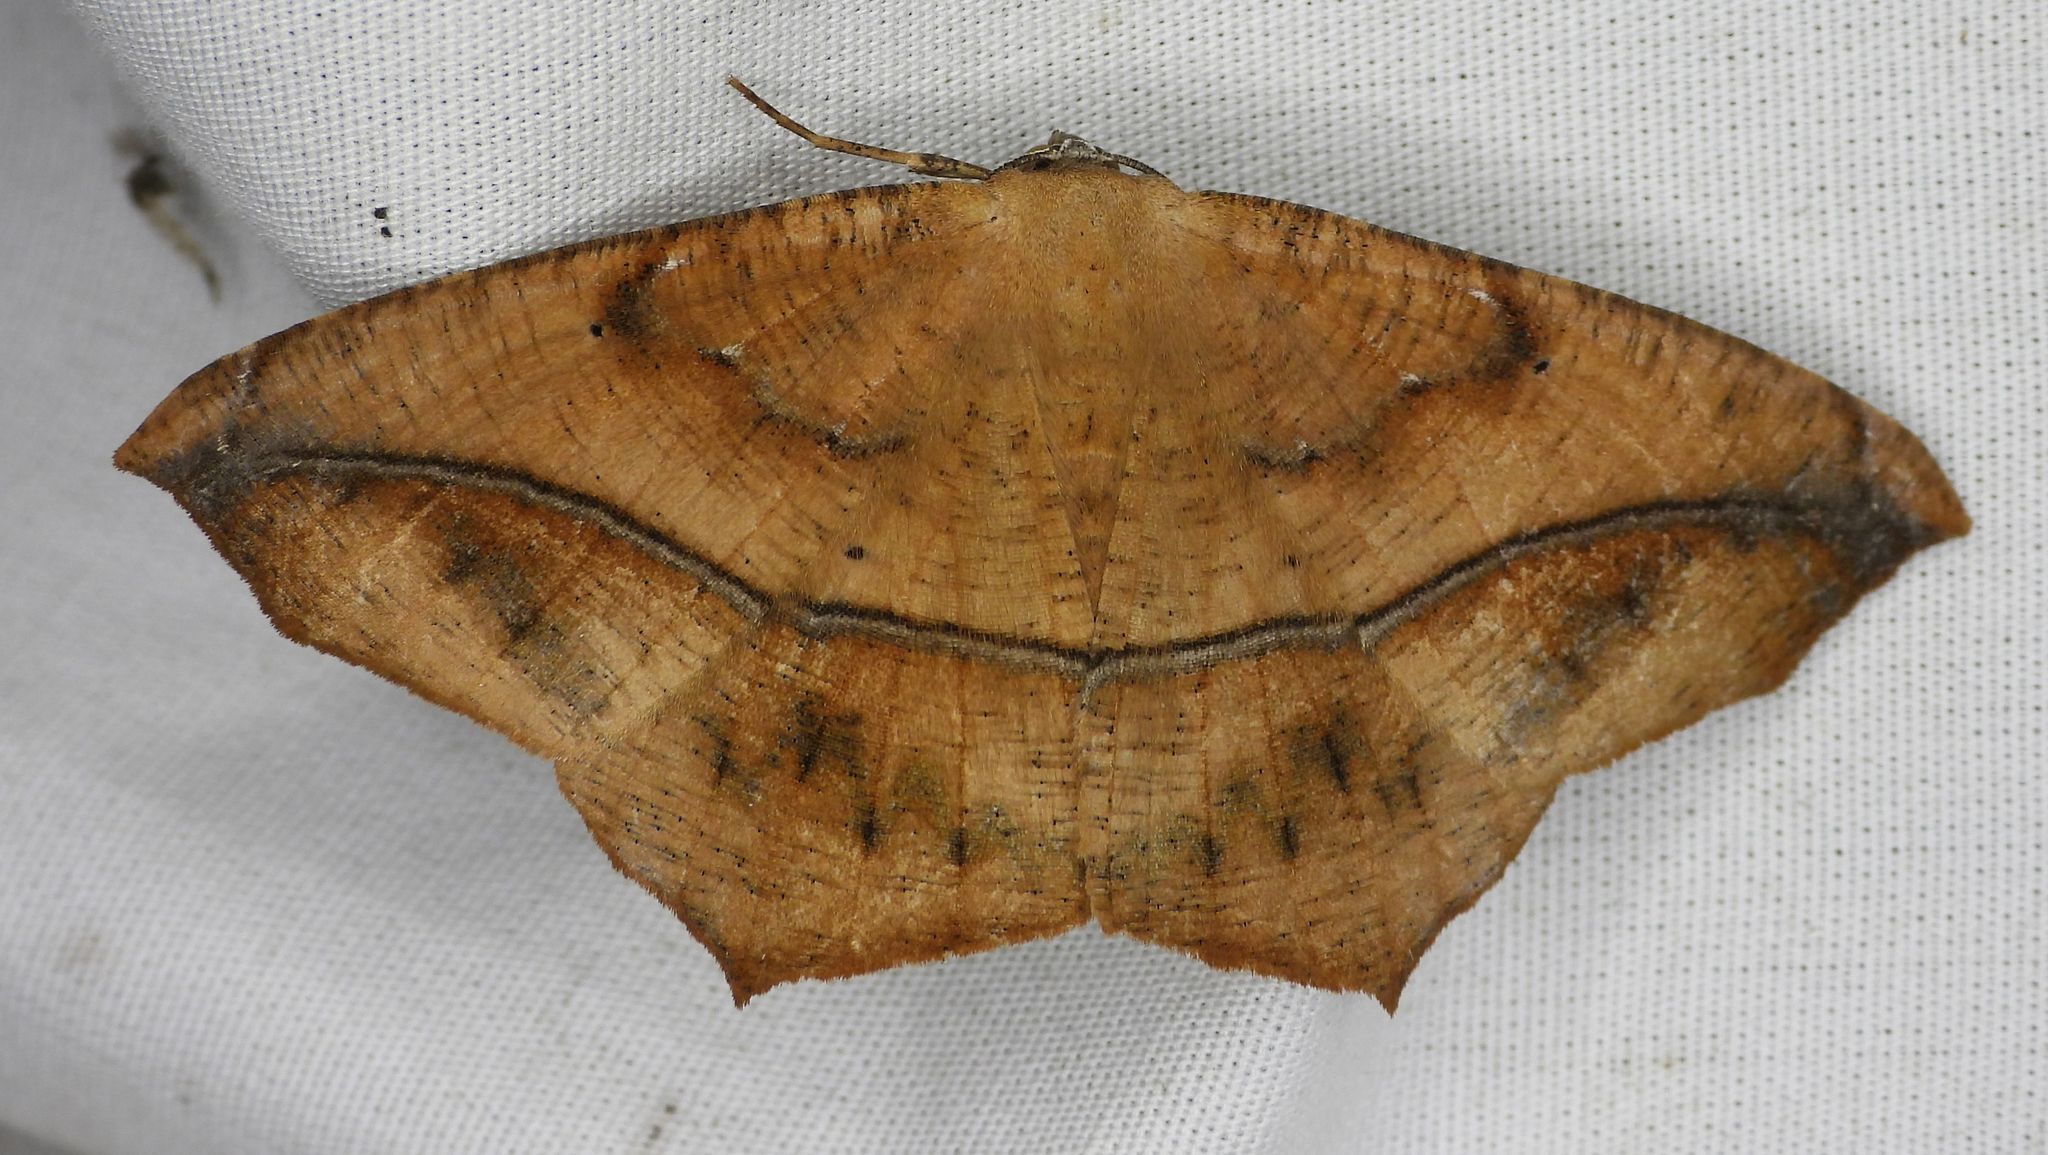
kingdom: Animalia
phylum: Arthropoda
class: Insecta
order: Lepidoptera
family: Geometridae
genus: Prochoerodes
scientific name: Prochoerodes lineola
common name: Large maple spanworm
